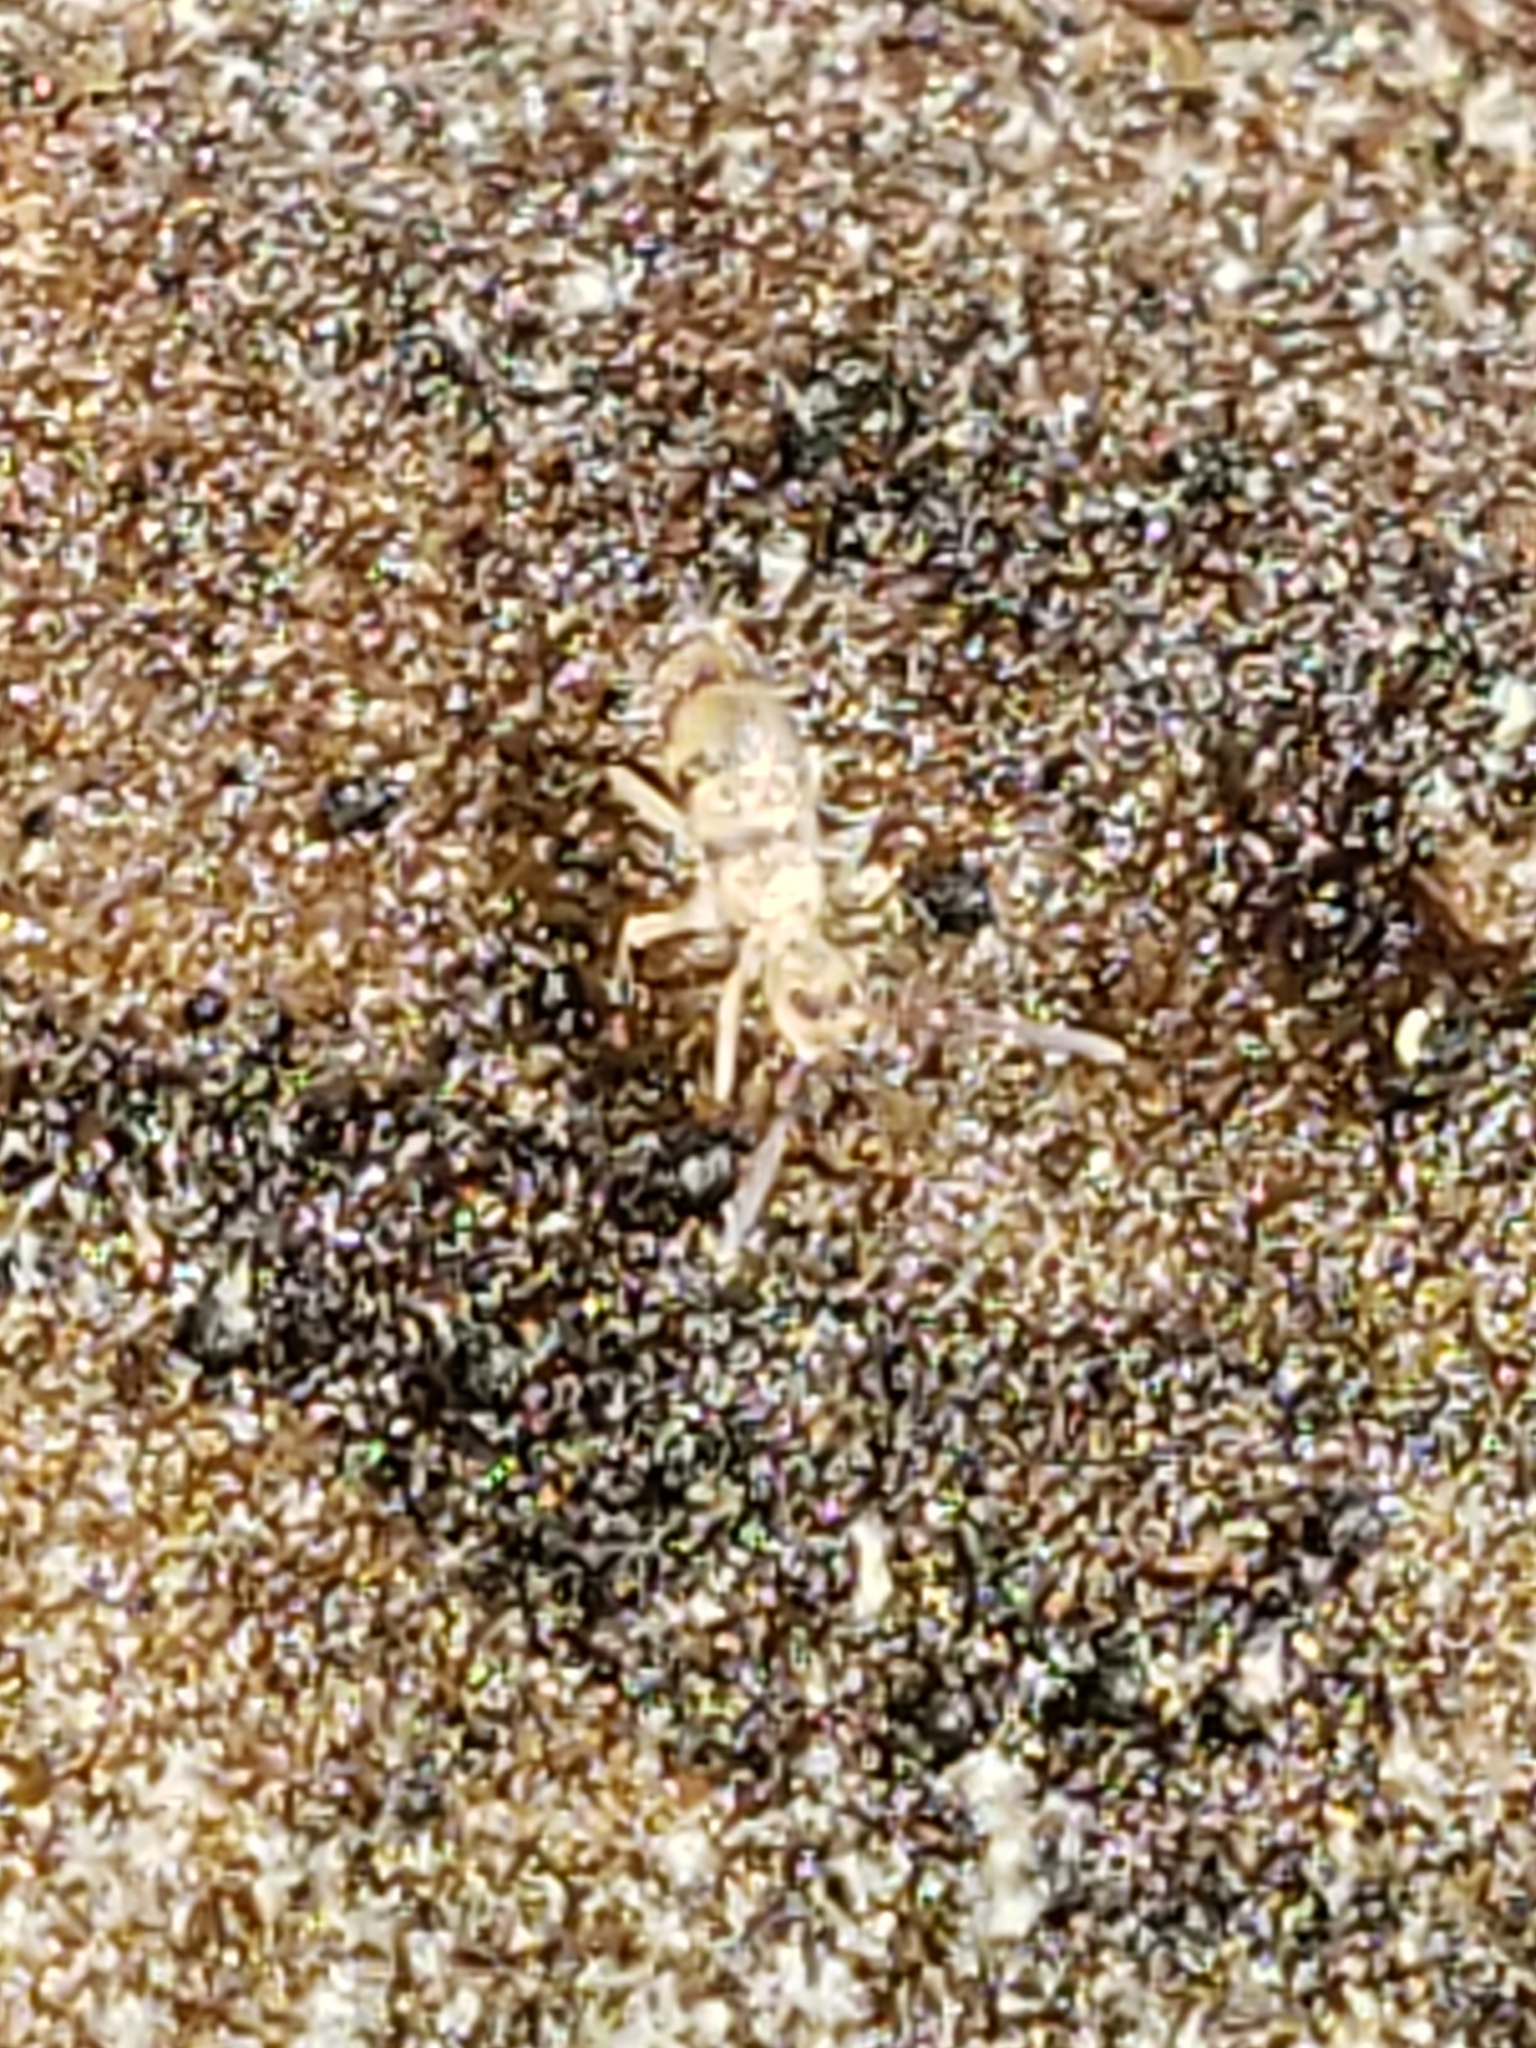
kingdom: Animalia
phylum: Arthropoda
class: Collembola
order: Entomobryomorpha
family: Entomobryidae
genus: Homidia
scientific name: Homidia sauteri
